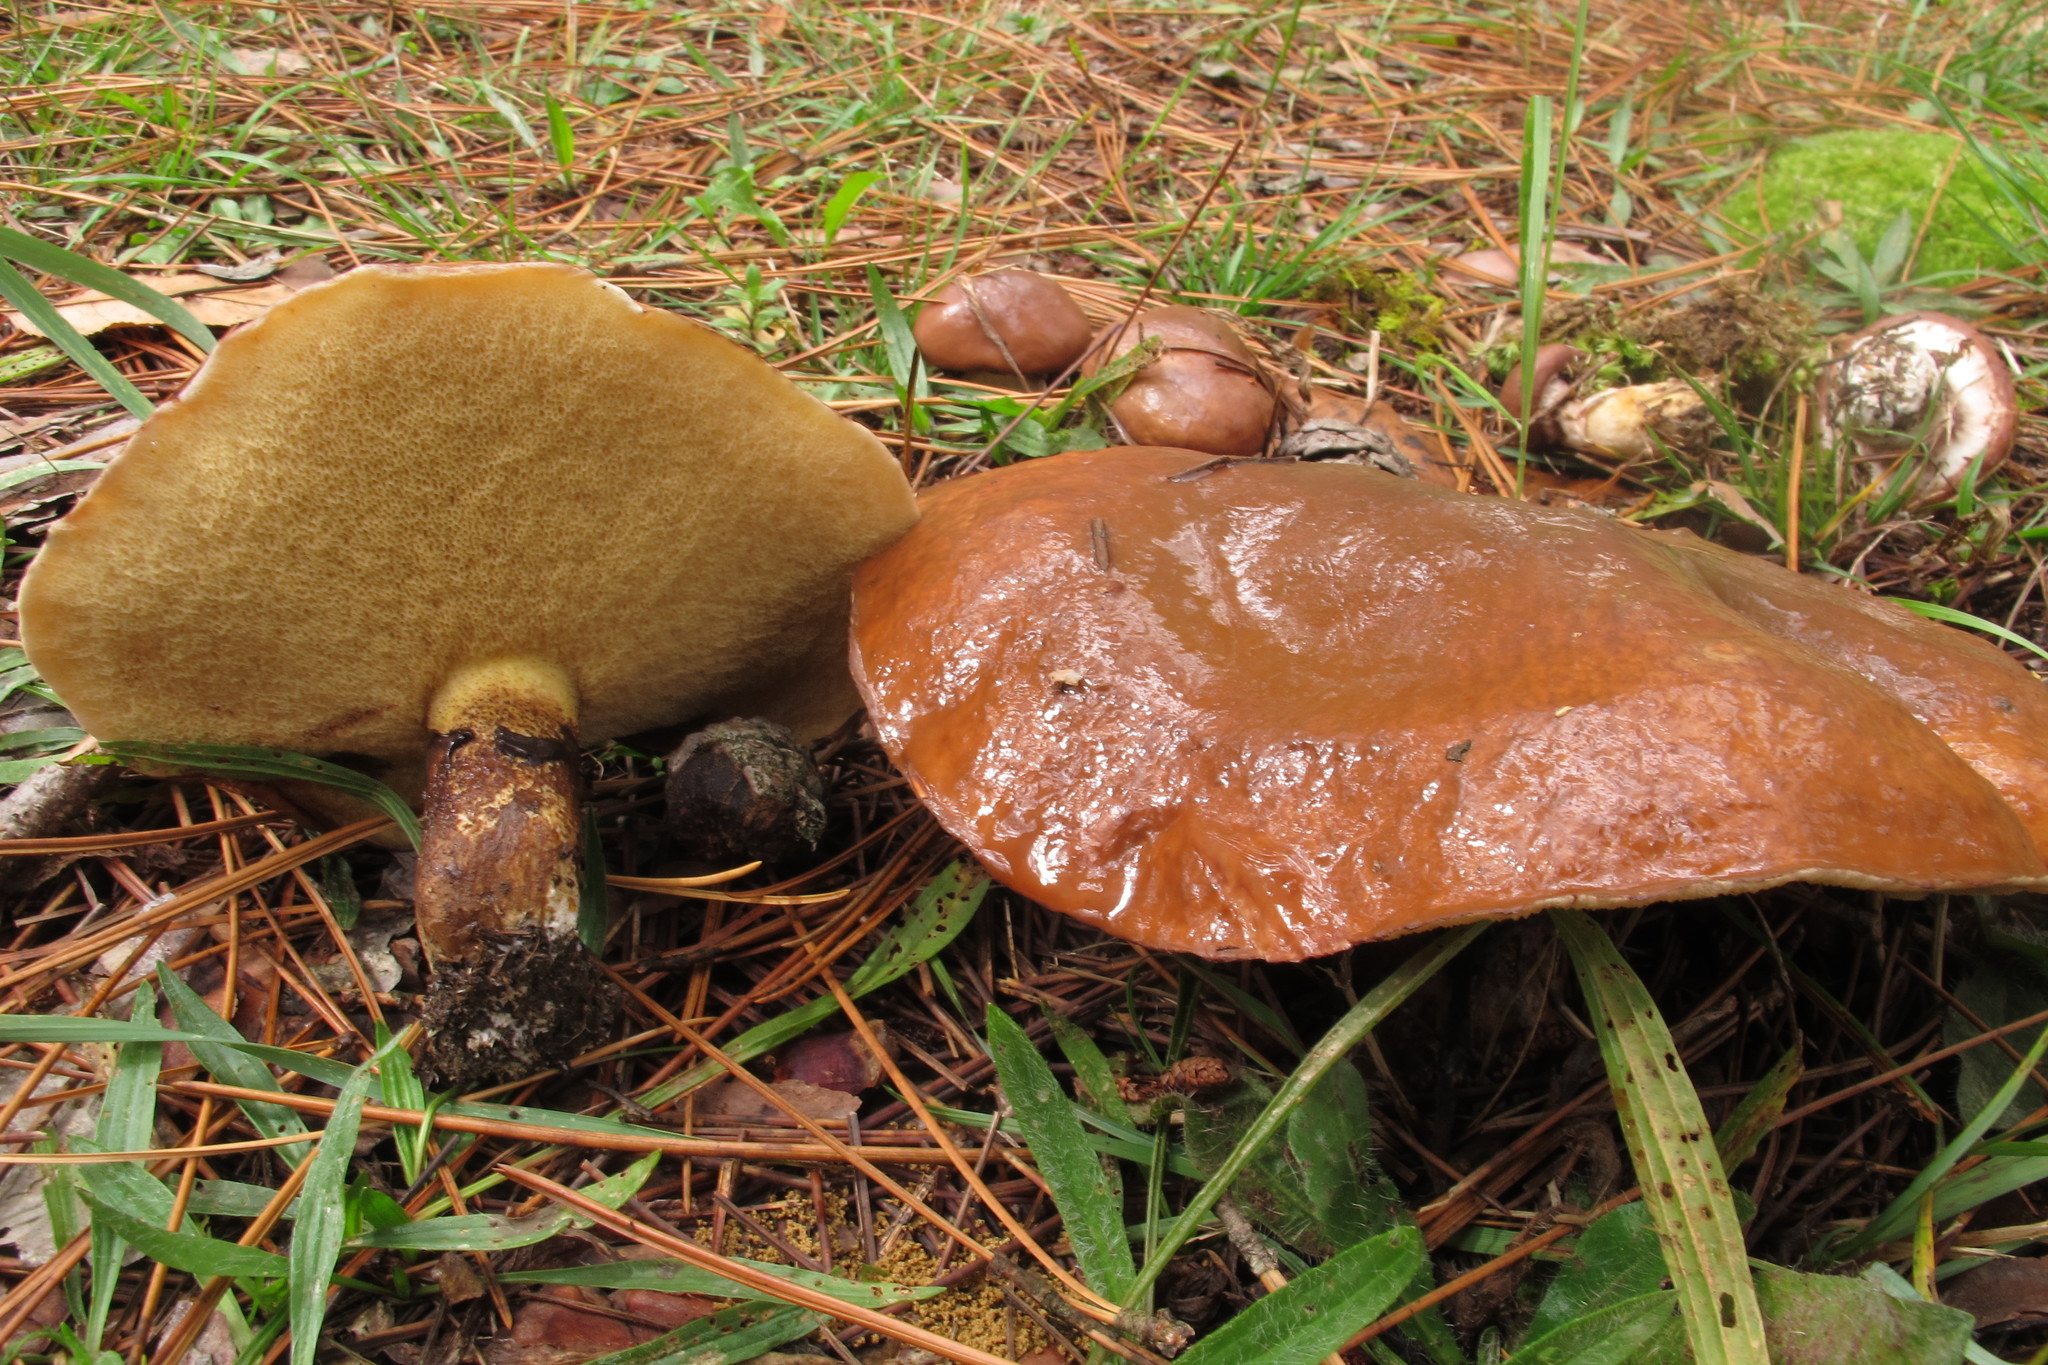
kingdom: Fungi
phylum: Basidiomycota
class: Agaricomycetes
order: Boletales
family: Suillaceae
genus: Suillus
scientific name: Suillus luteus
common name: Slippery jack
